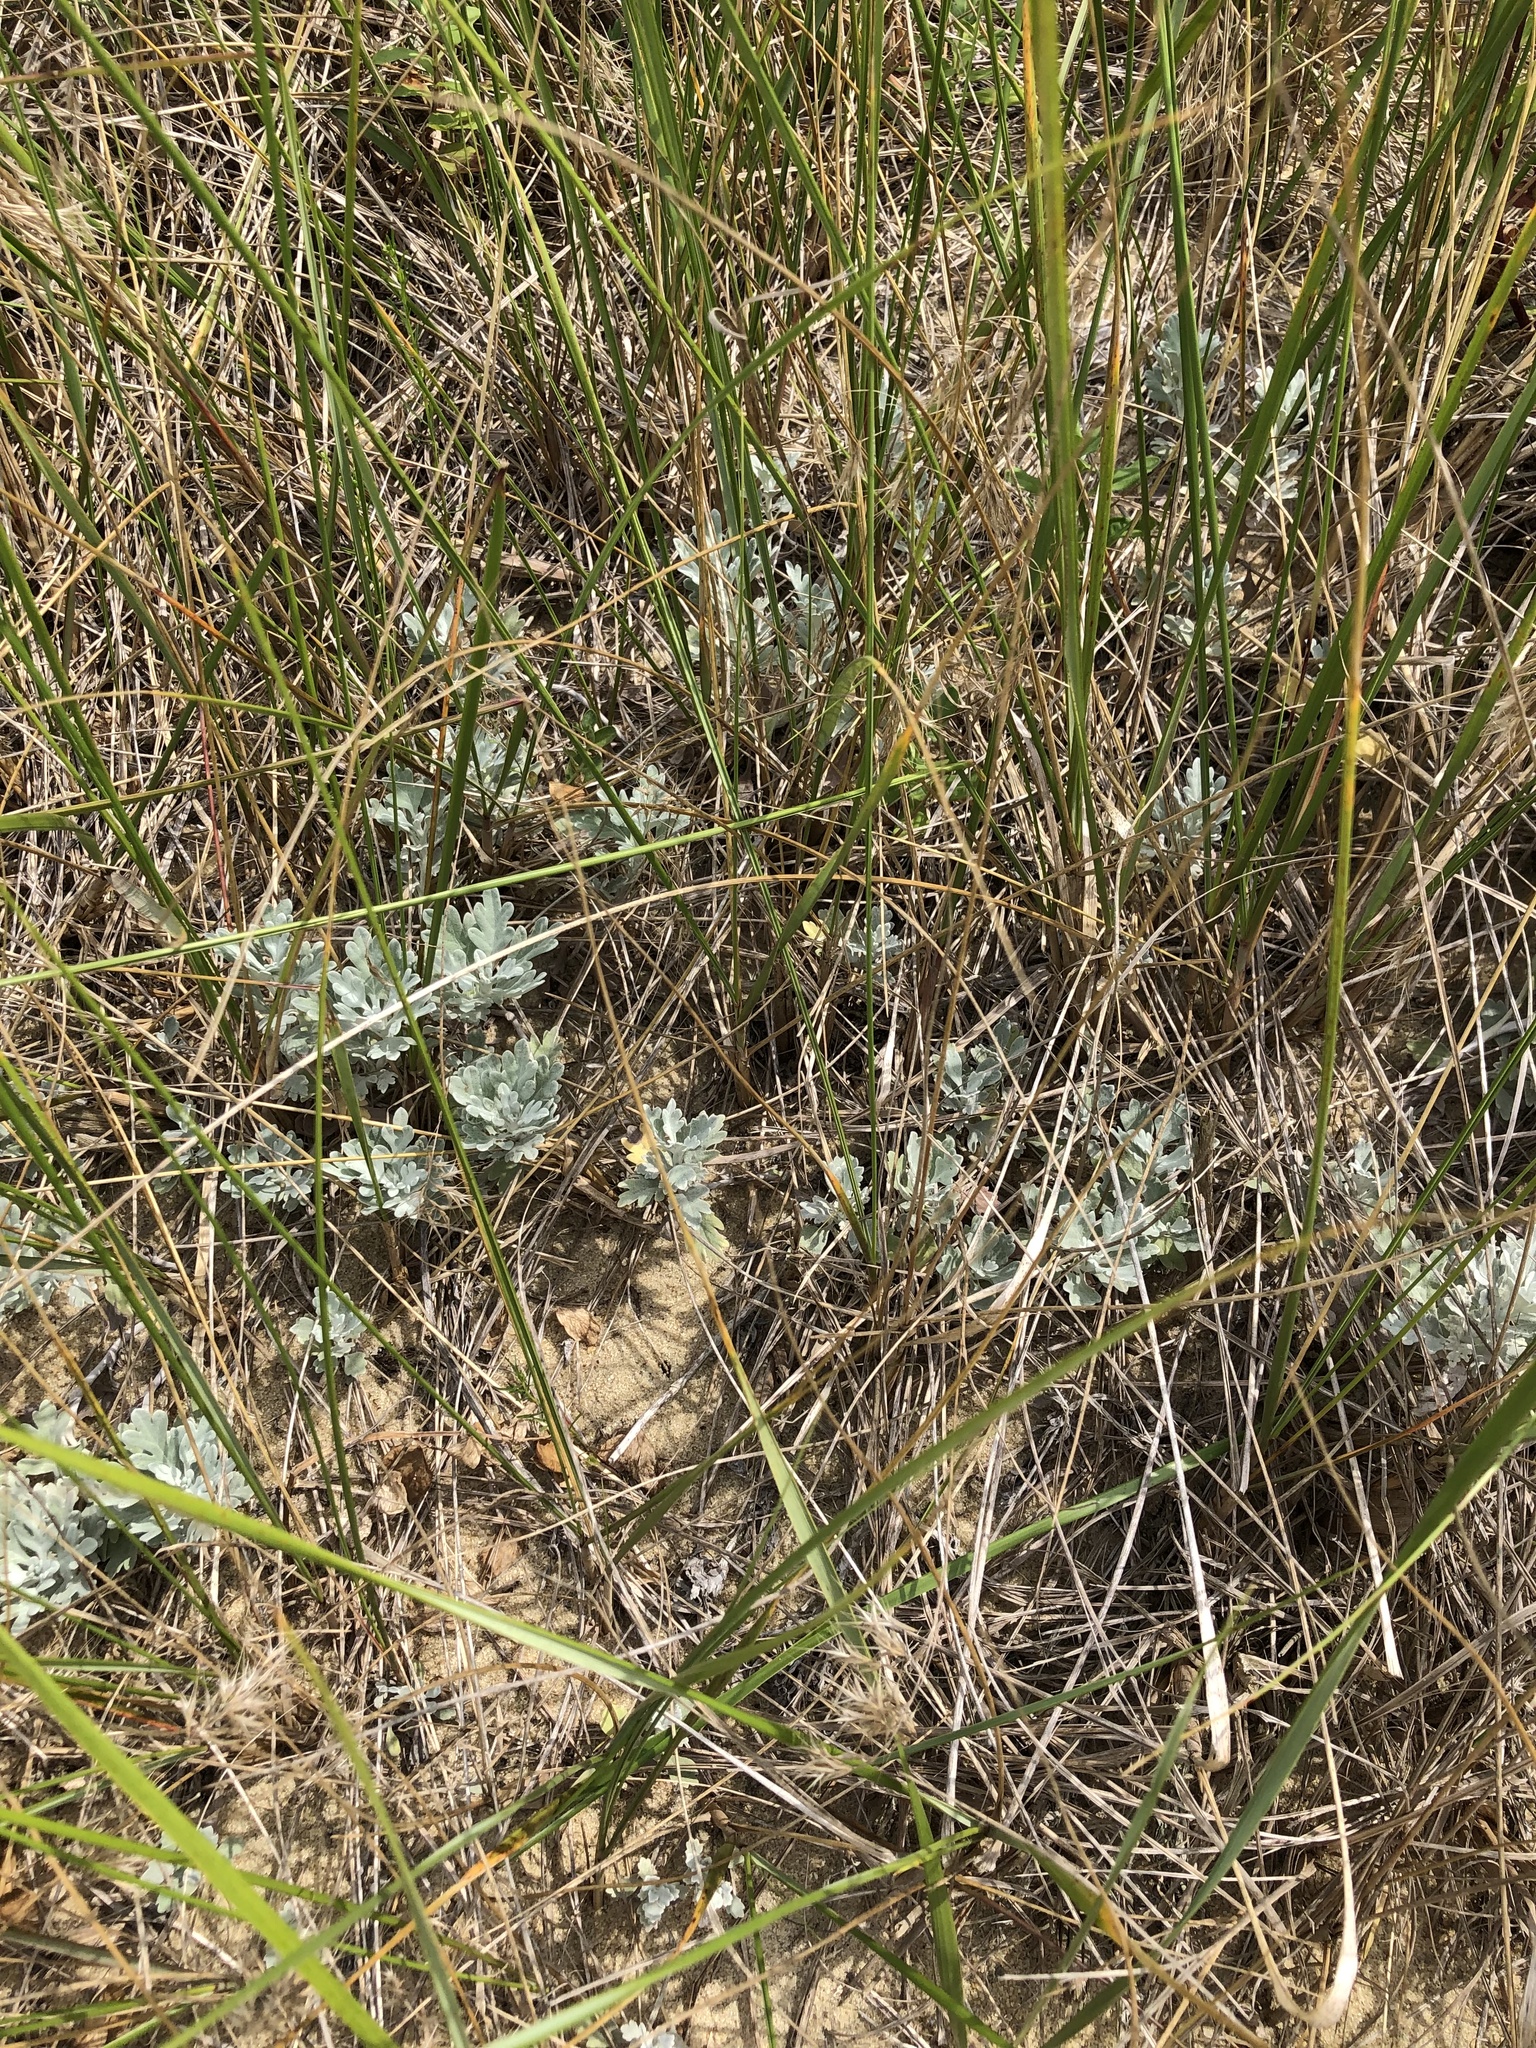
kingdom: Plantae
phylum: Tracheophyta
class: Magnoliopsida
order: Asterales
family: Asteraceae
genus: Artemisia
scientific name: Artemisia stelleriana
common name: Beach wormwood
